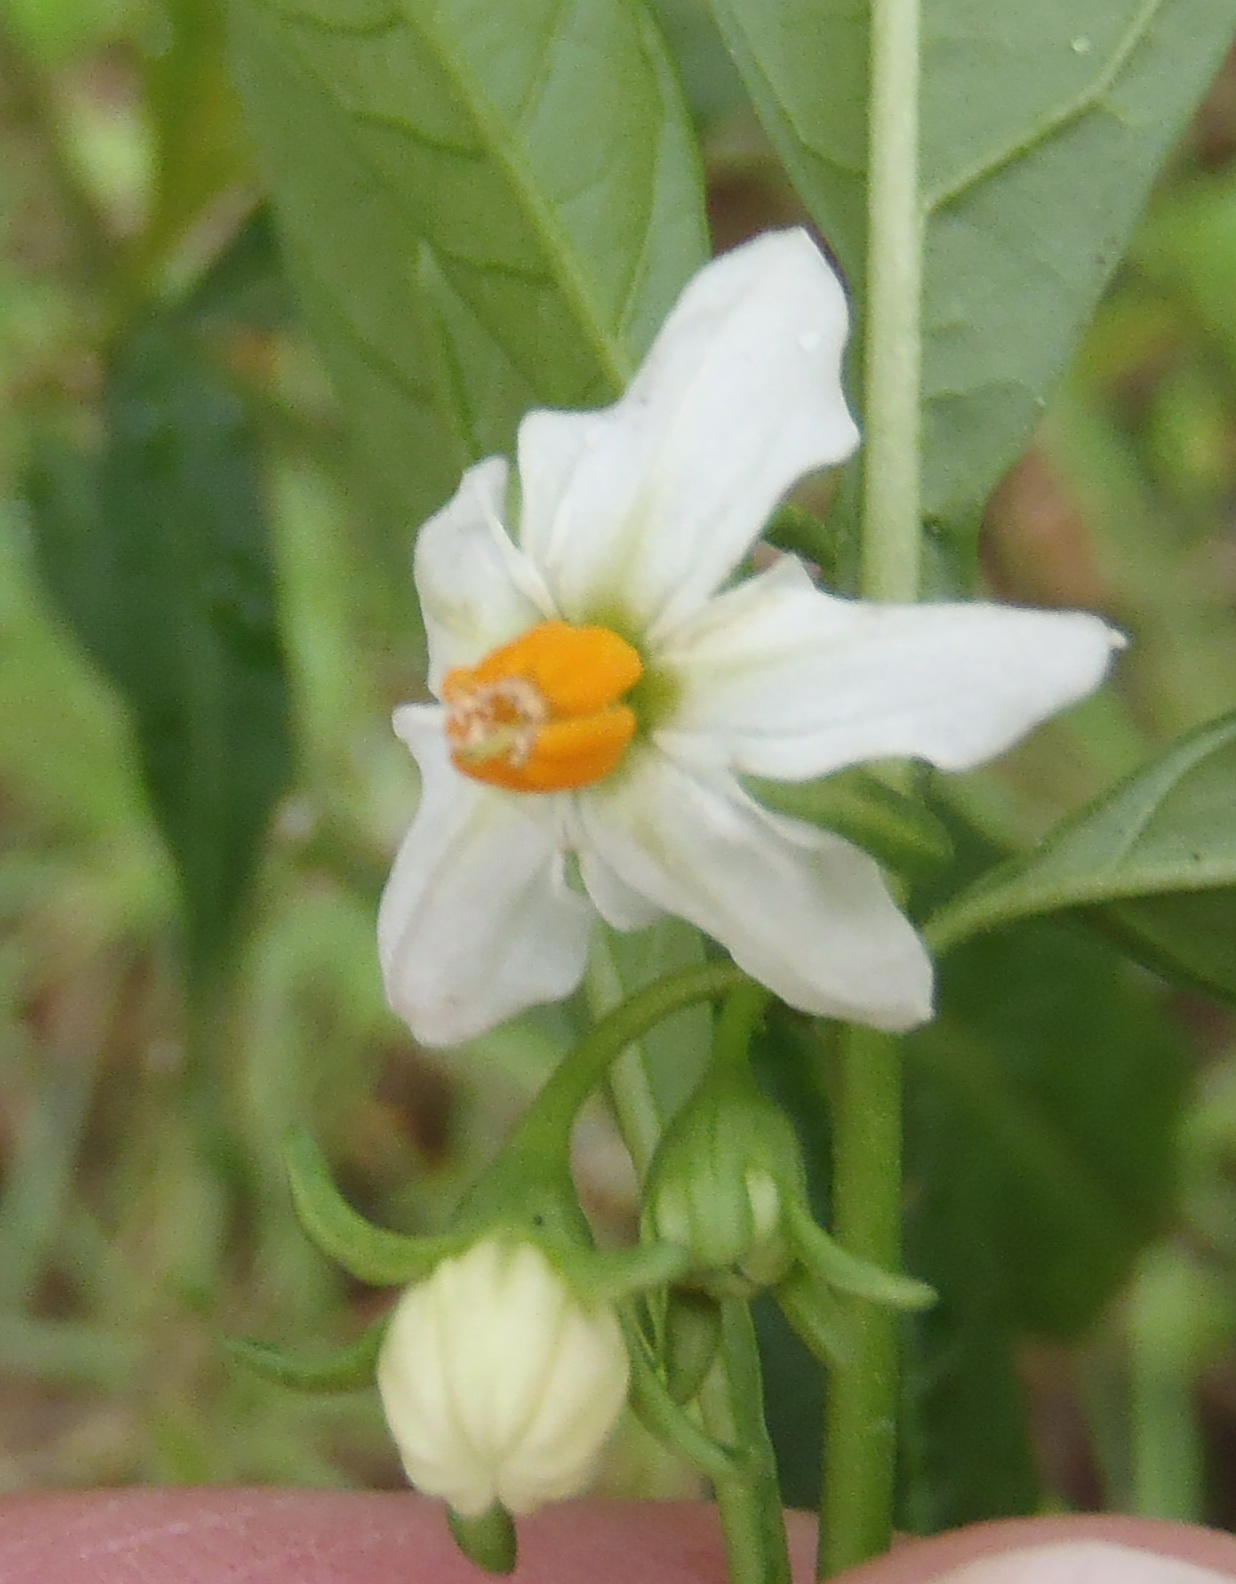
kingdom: Plantae
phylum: Tracheophyta
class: Magnoliopsida
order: Solanales
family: Solanaceae
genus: Solanum
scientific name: Solanum pseudocapsicum
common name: Jerusalem cherry
